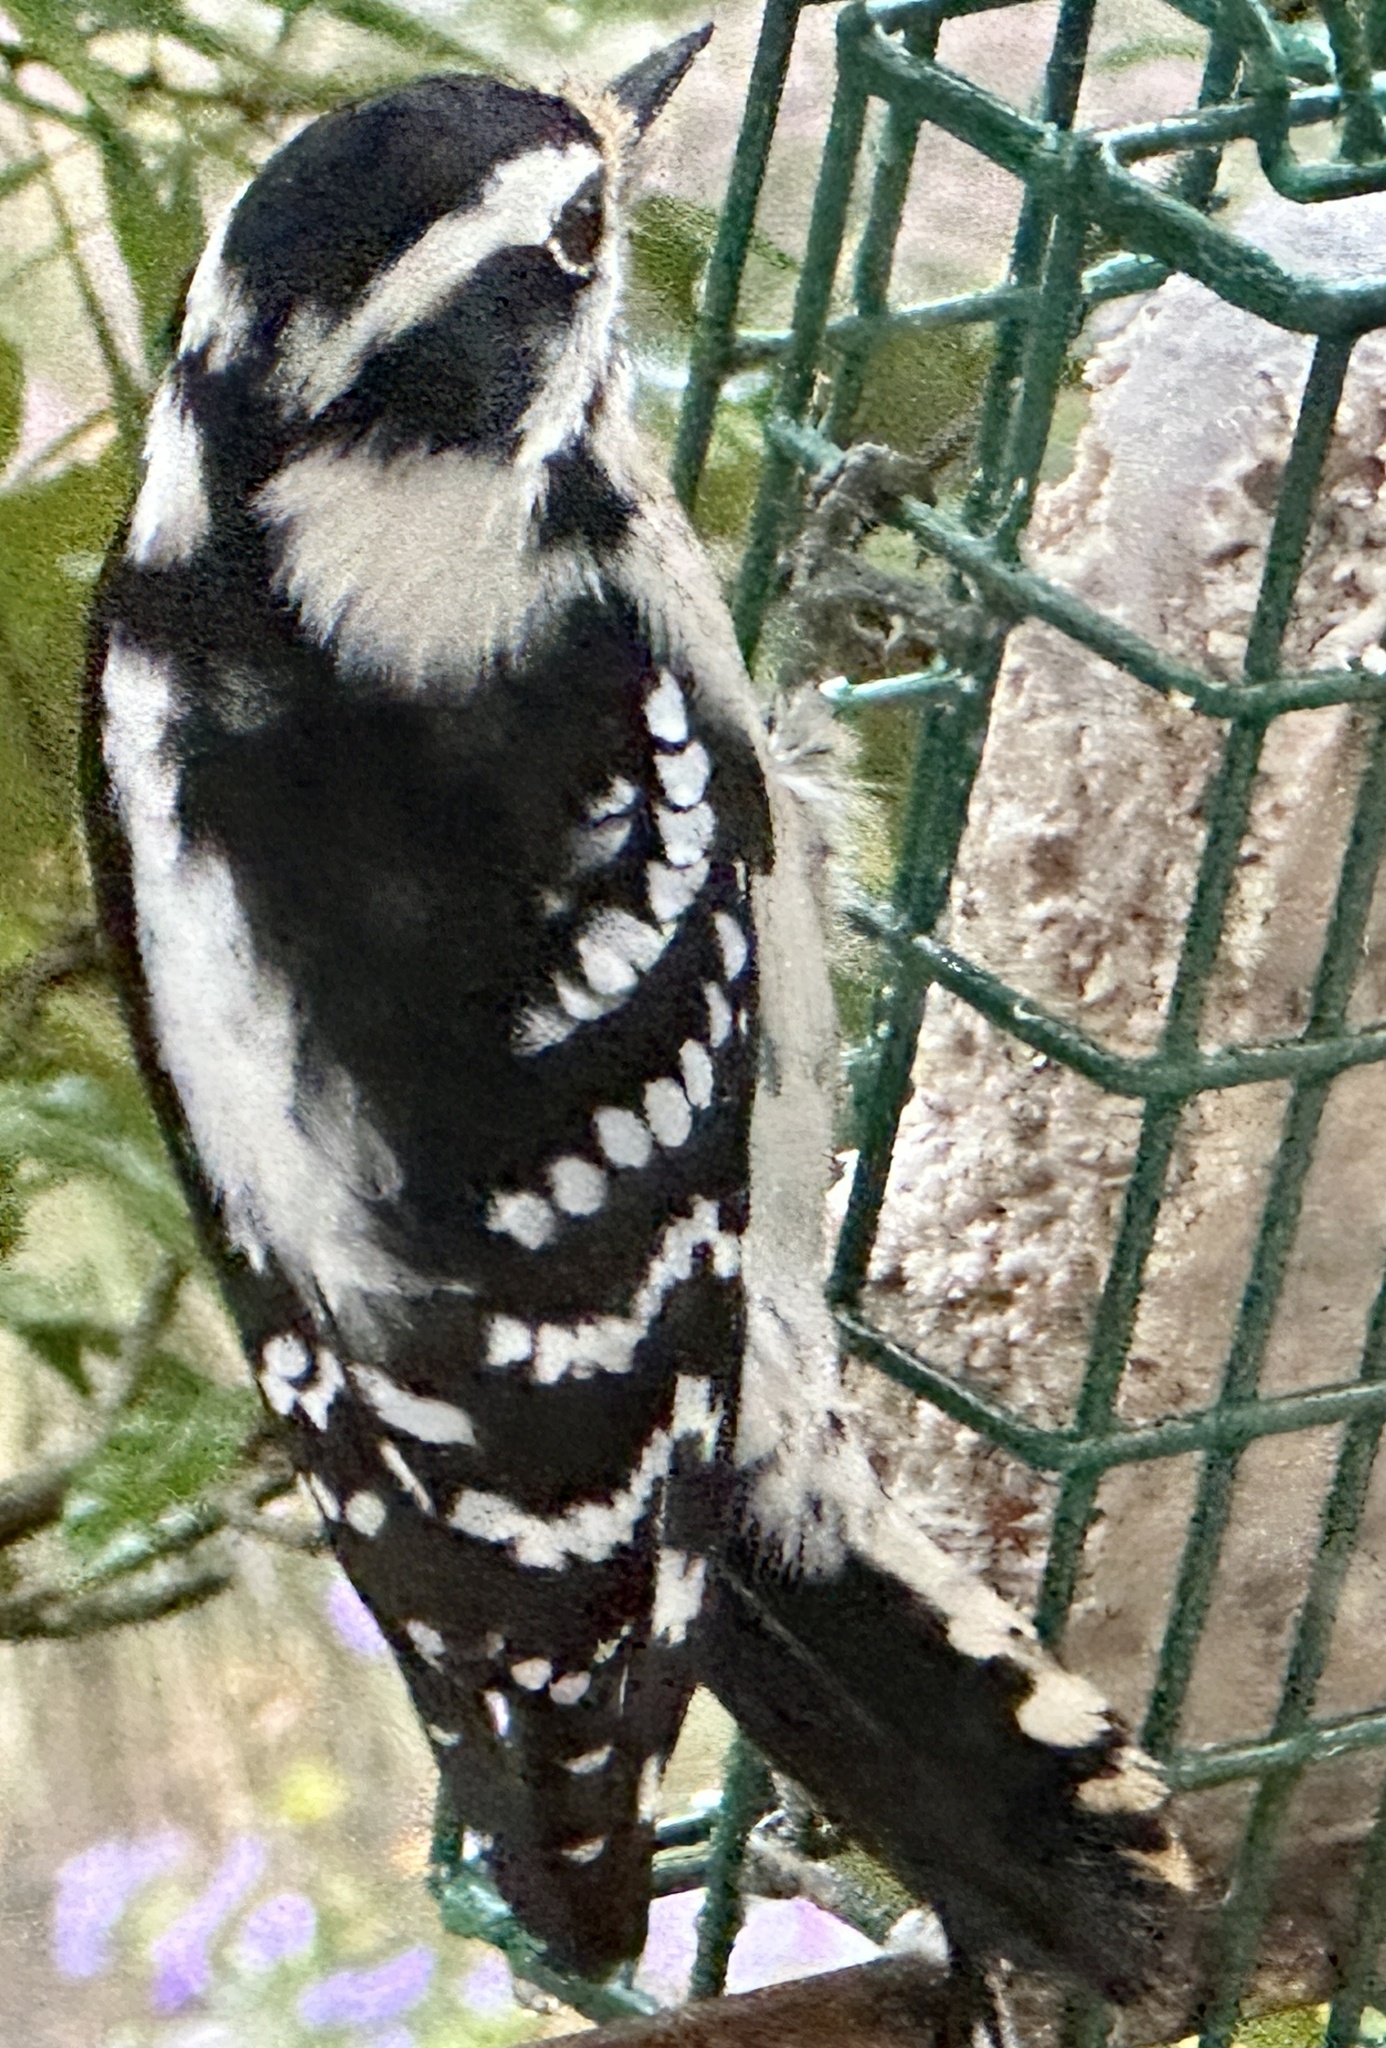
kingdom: Animalia
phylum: Chordata
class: Aves
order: Piciformes
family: Picidae
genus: Dryobates
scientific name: Dryobates pubescens
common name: Downy woodpecker
